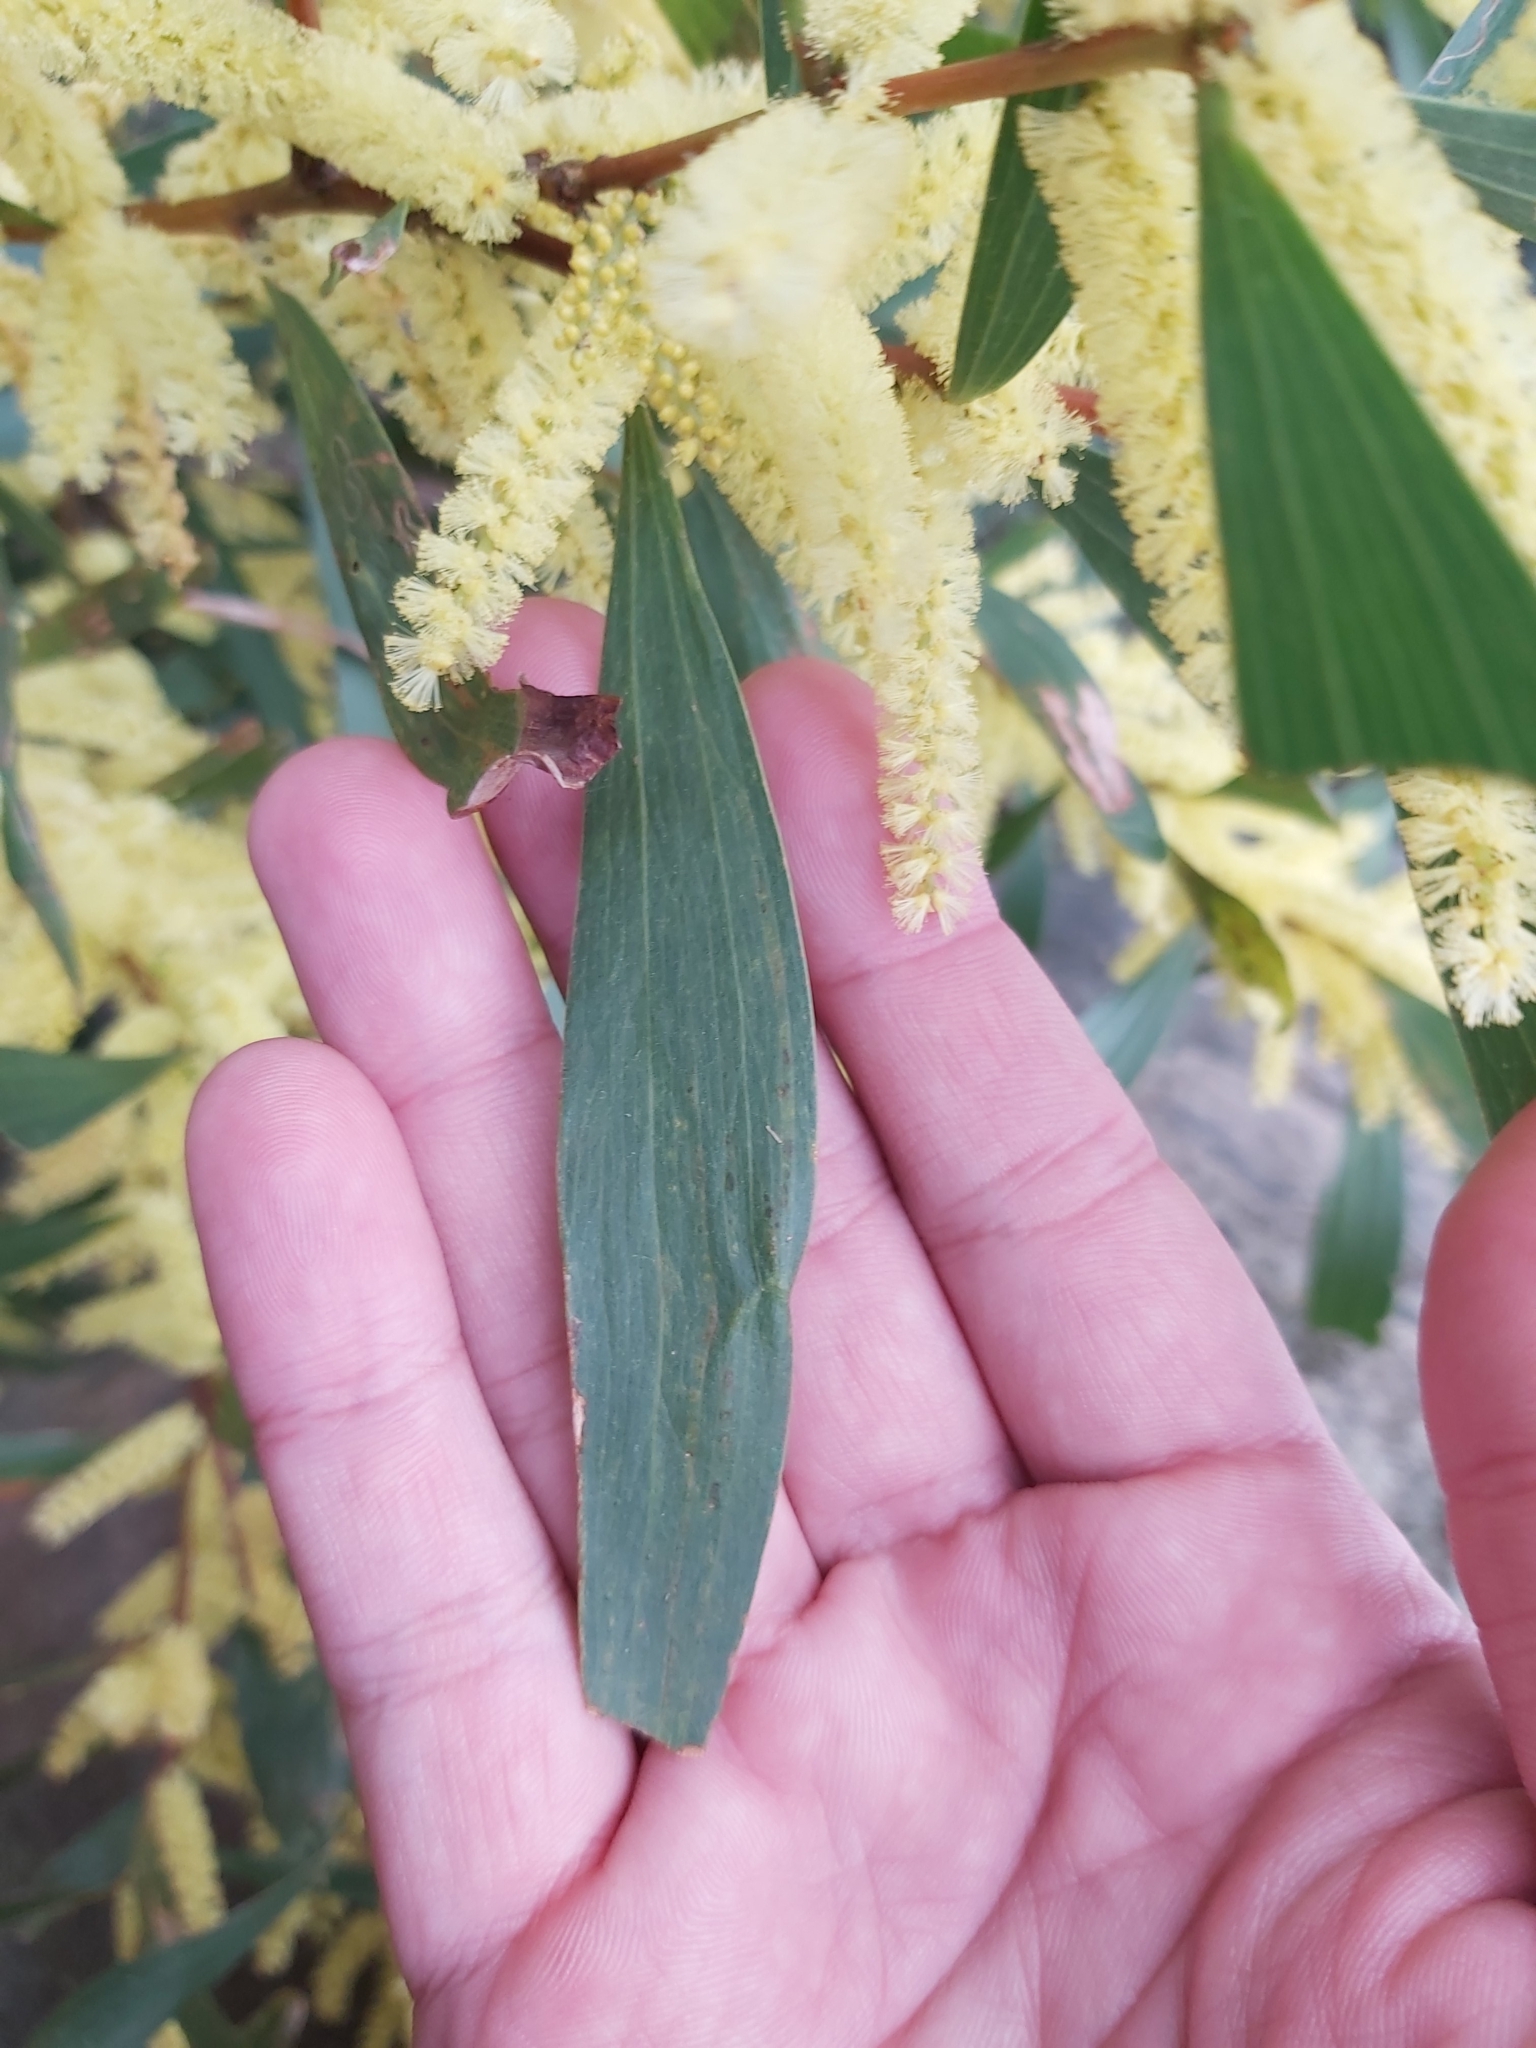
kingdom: Plantae
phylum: Tracheophyta
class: Magnoliopsida
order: Fabales
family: Fabaceae
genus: Acacia
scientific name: Acacia longifolia
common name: Sydney golden wattle
